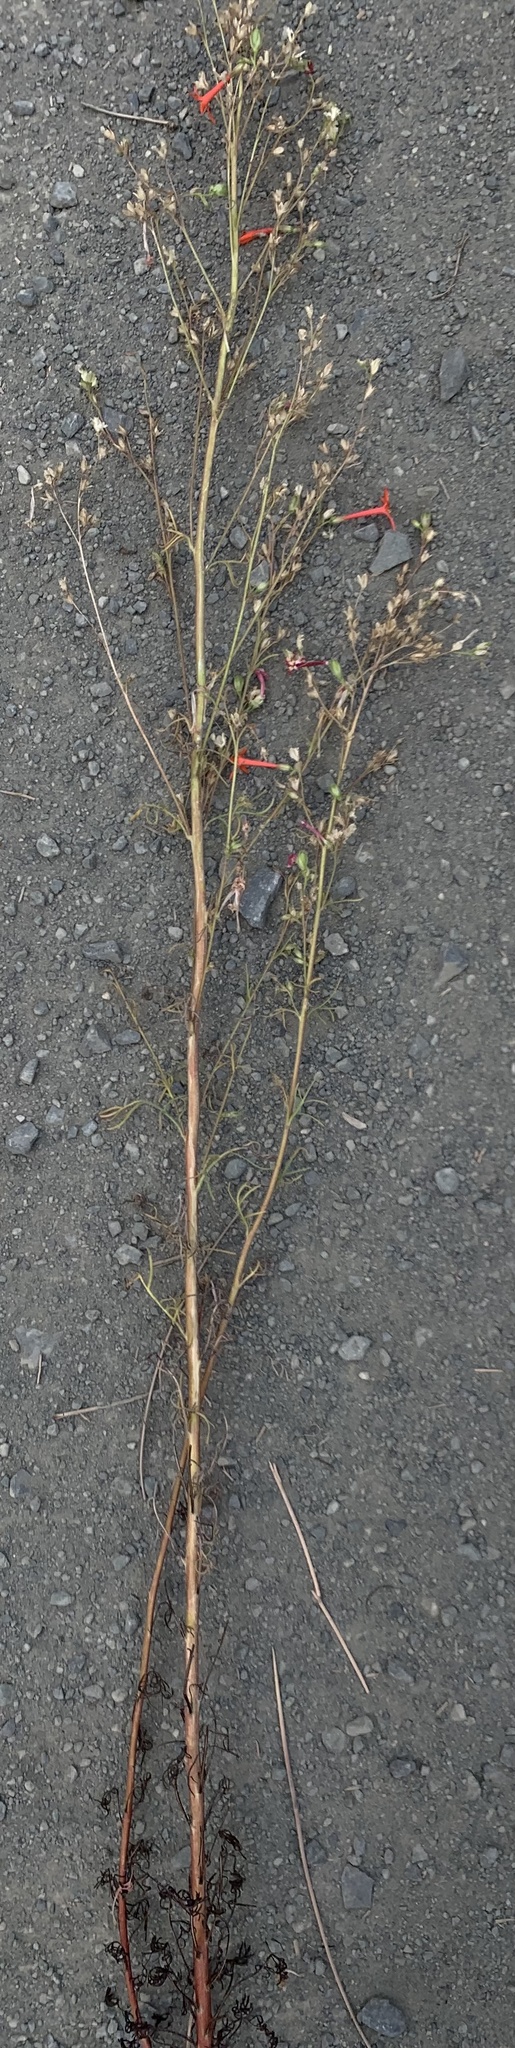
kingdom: Plantae
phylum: Tracheophyta
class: Magnoliopsida
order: Ericales
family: Polemoniaceae
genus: Ipomopsis
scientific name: Ipomopsis aggregata
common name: Scarlet gilia
